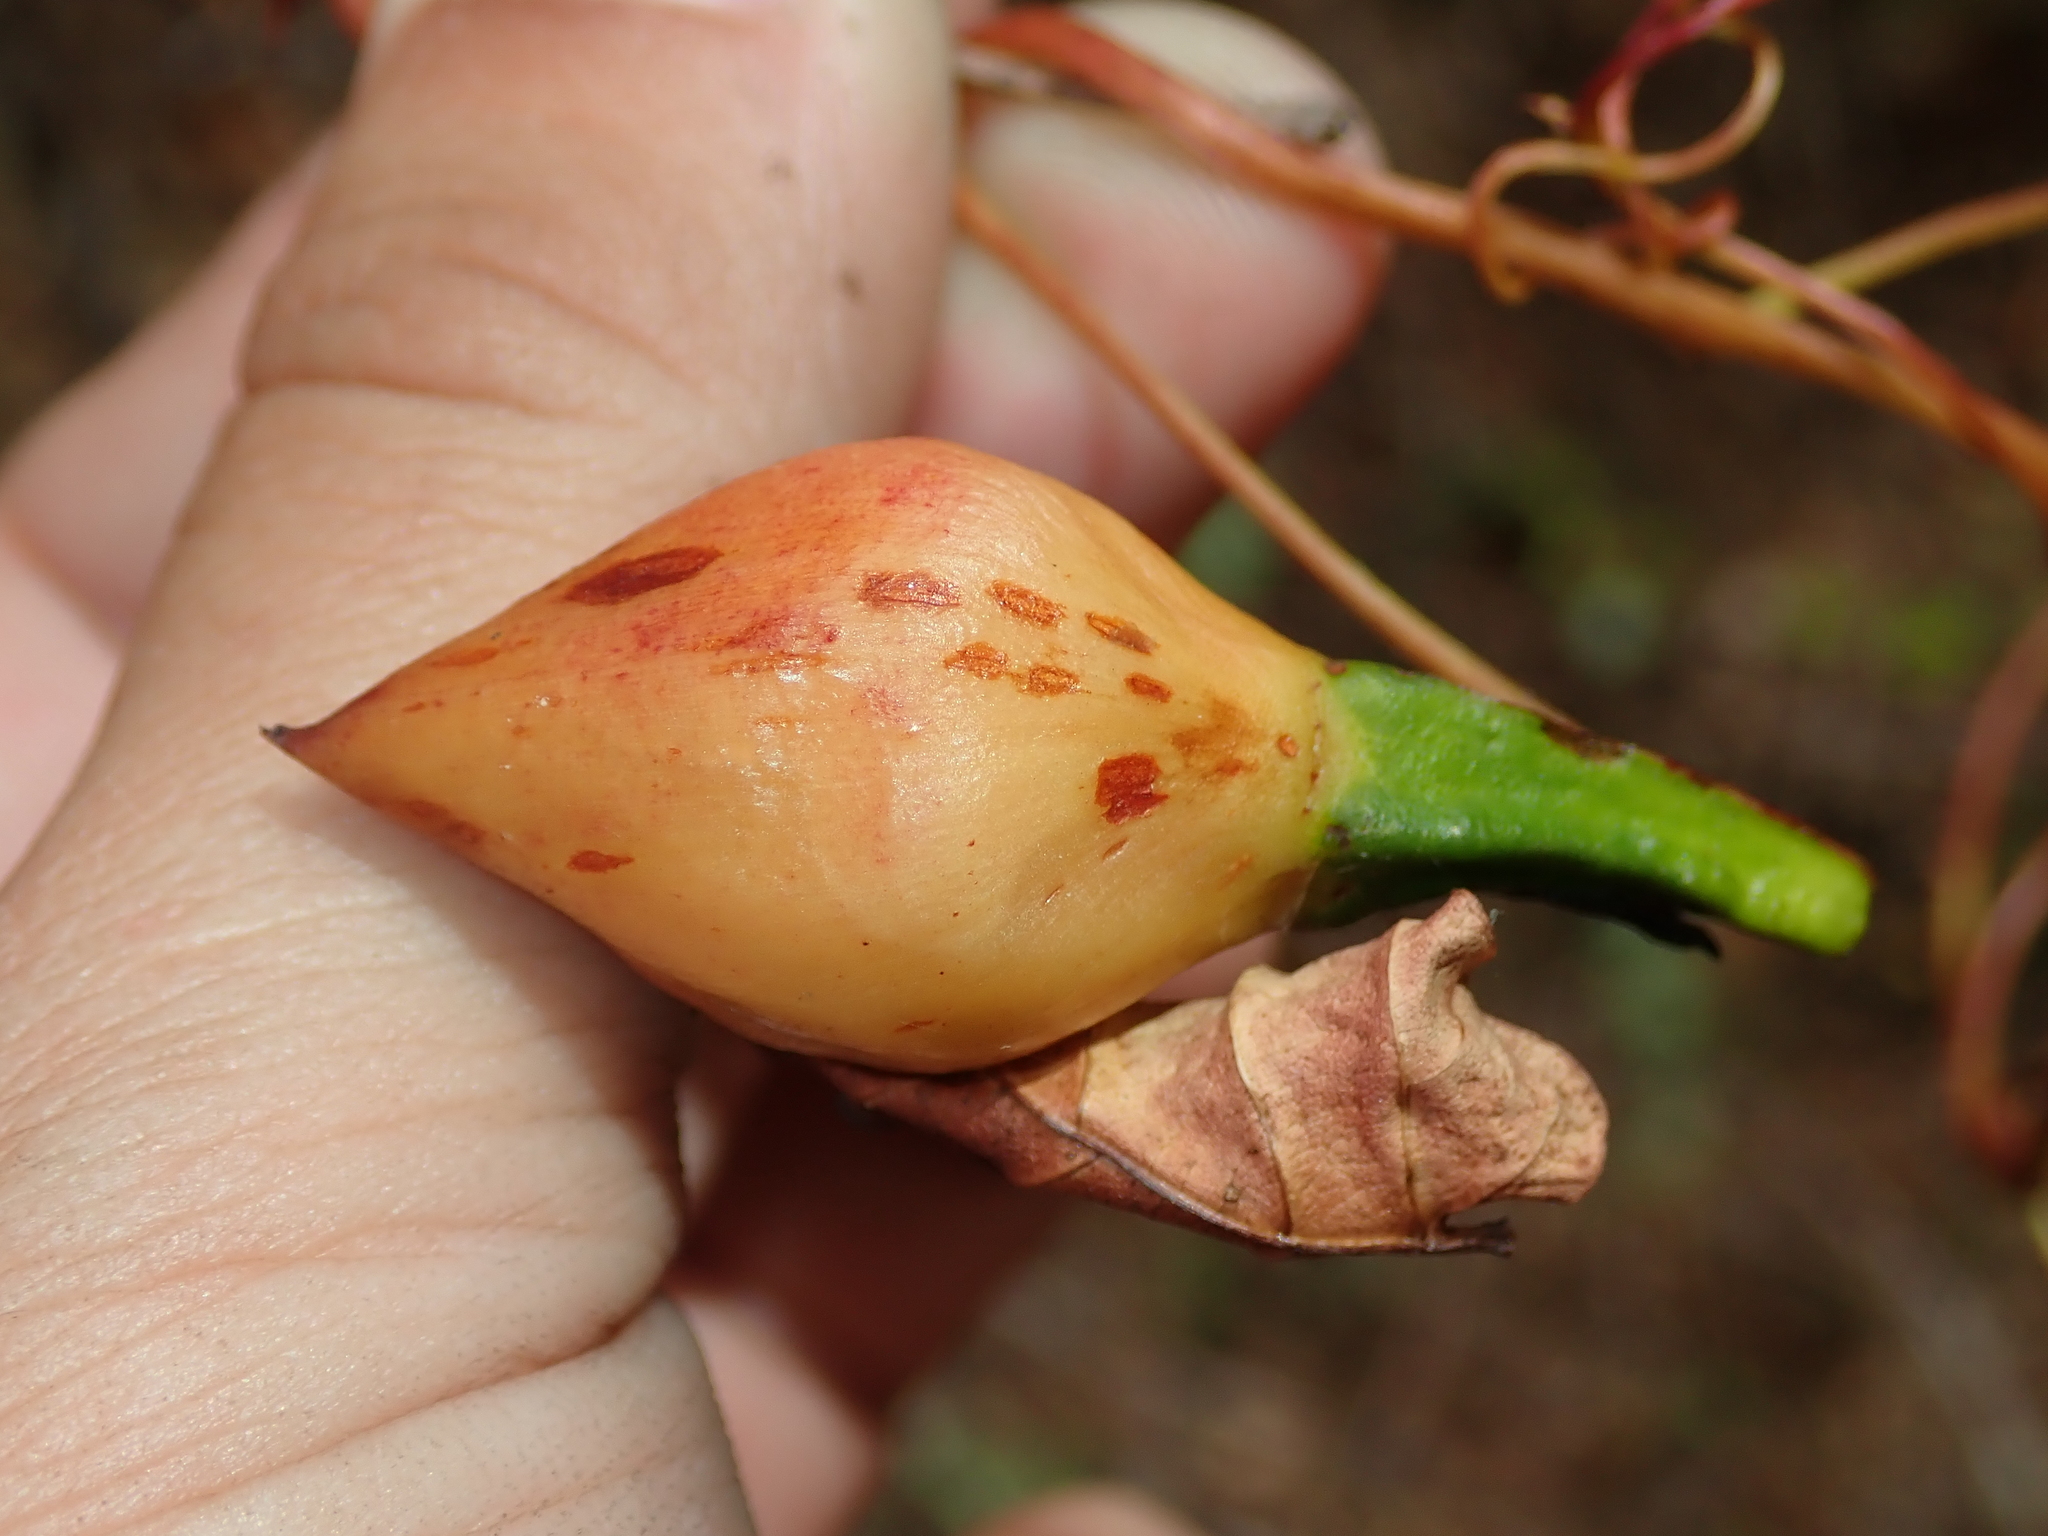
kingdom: Plantae
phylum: Tracheophyta
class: Magnoliopsida
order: Solanales
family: Convolvulaceae
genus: Operculina
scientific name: Operculina pteripes
